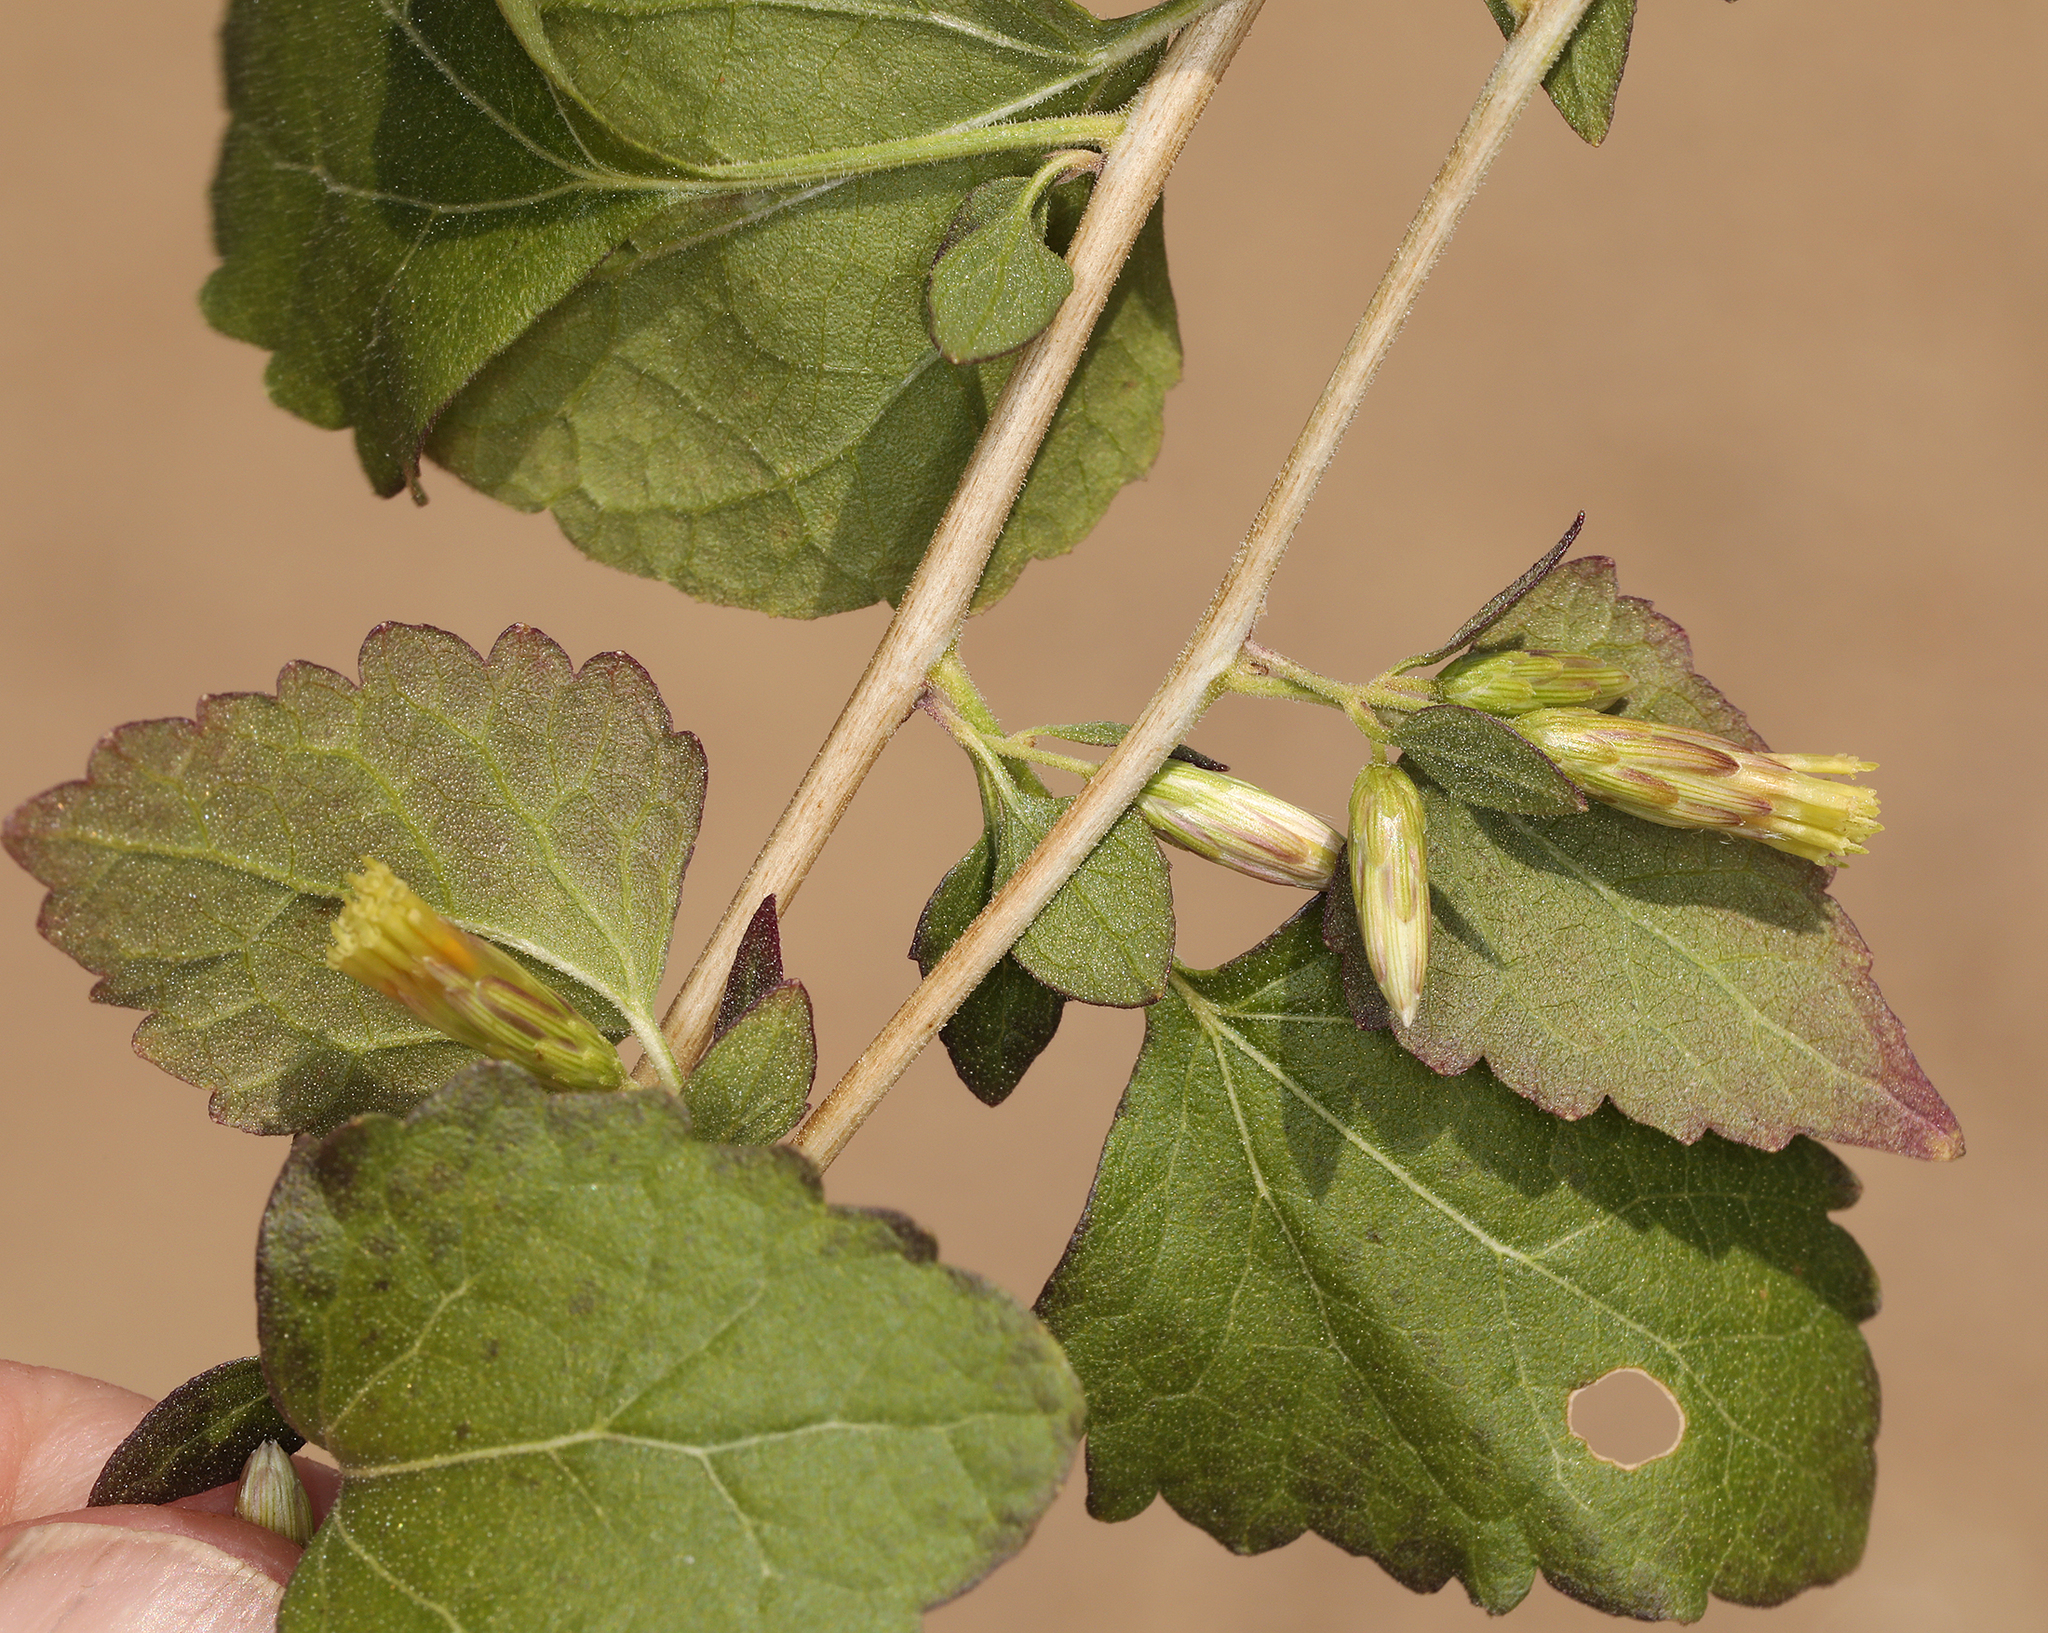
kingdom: Plantae
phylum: Tracheophyta
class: Magnoliopsida
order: Asterales
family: Asteraceae
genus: Brickellia
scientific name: Brickellia californica
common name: California brickellbush
